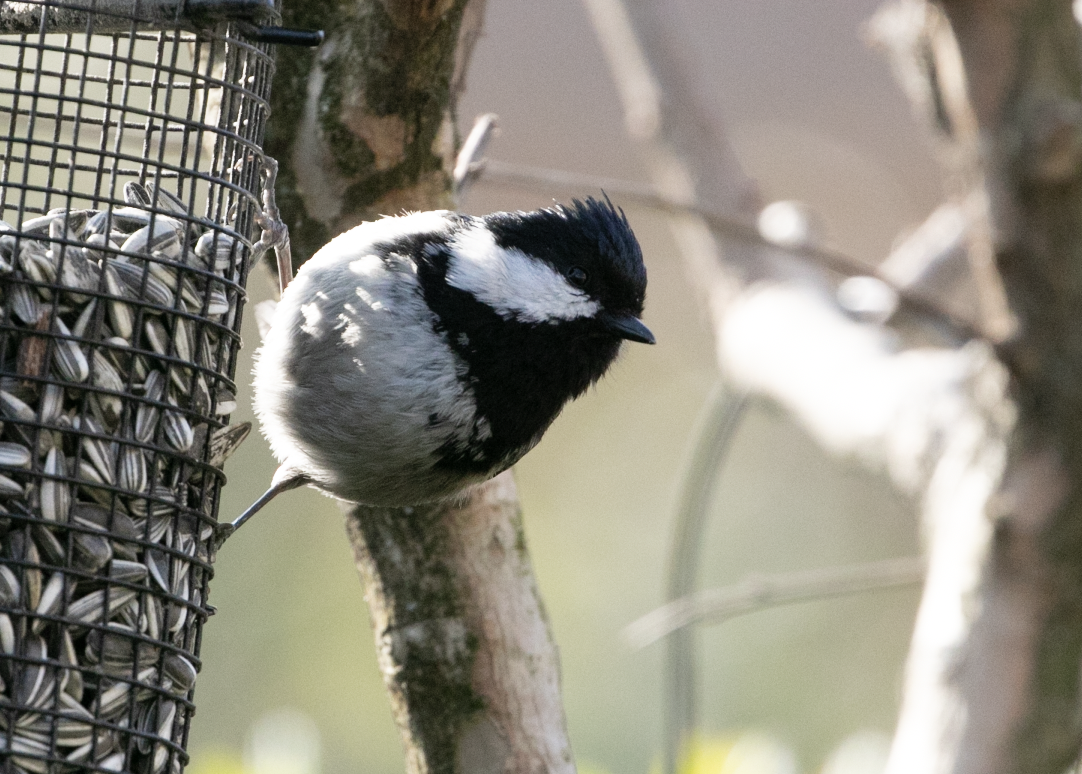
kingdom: Animalia
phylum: Chordata
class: Aves
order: Passeriformes
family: Paridae
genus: Periparus
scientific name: Periparus ater
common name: Coal tit
